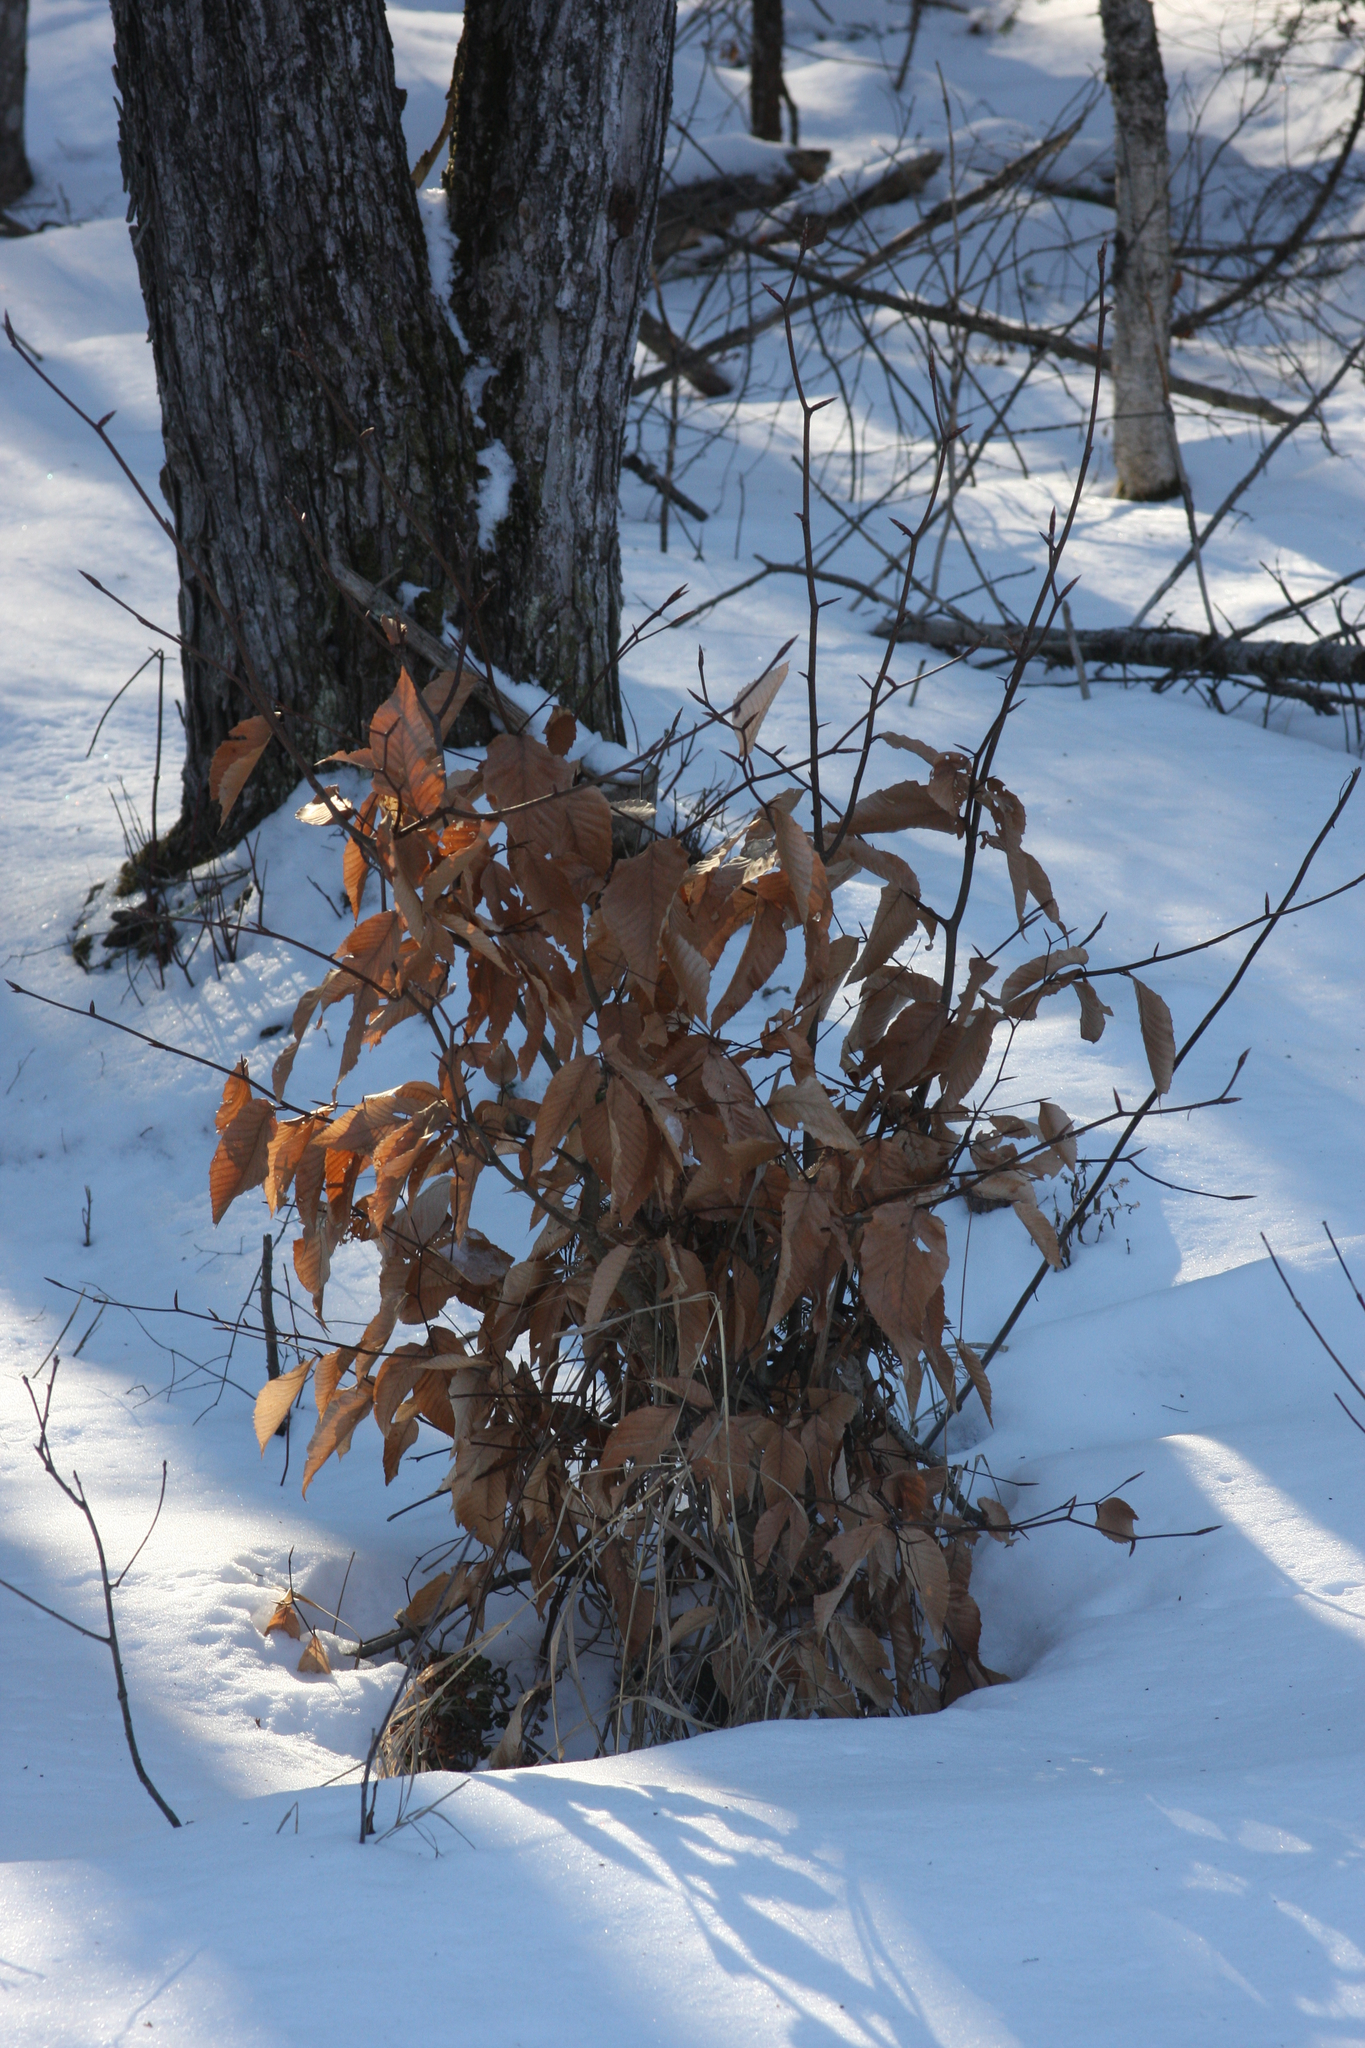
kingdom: Plantae
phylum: Tracheophyta
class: Magnoliopsida
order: Fagales
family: Fagaceae
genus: Fagus
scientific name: Fagus grandifolia
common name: American beech
